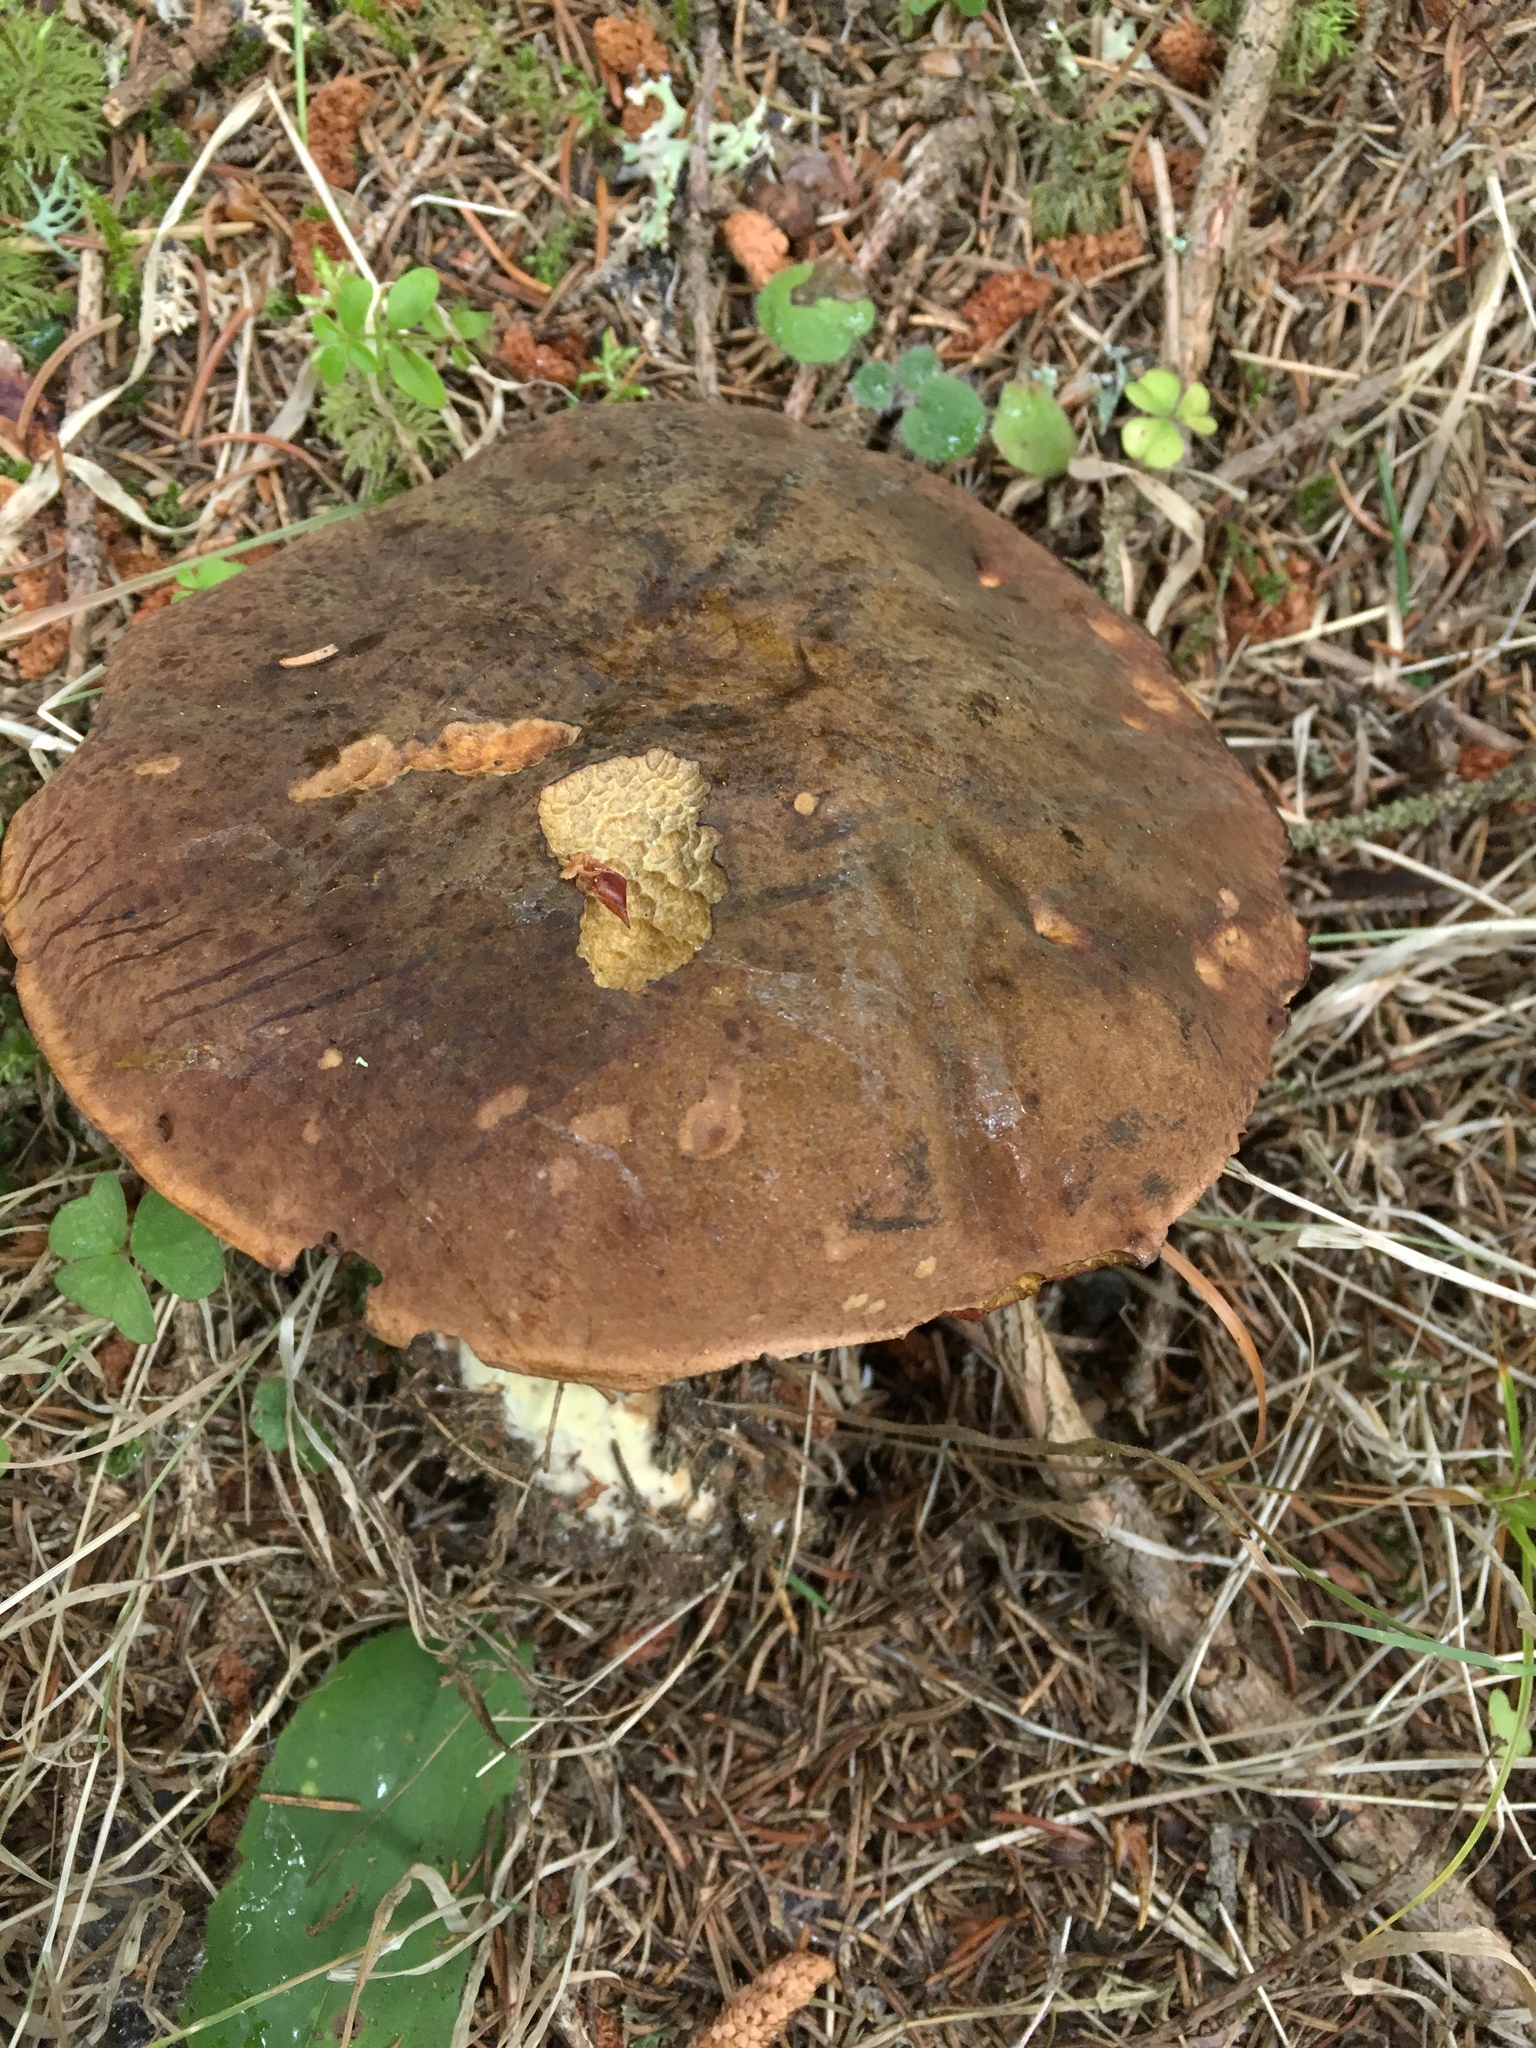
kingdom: Fungi
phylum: Basidiomycota
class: Agaricomycetes
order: Boletales
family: Boletaceae
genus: Neoboletus
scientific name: Neoboletus luridiformis
